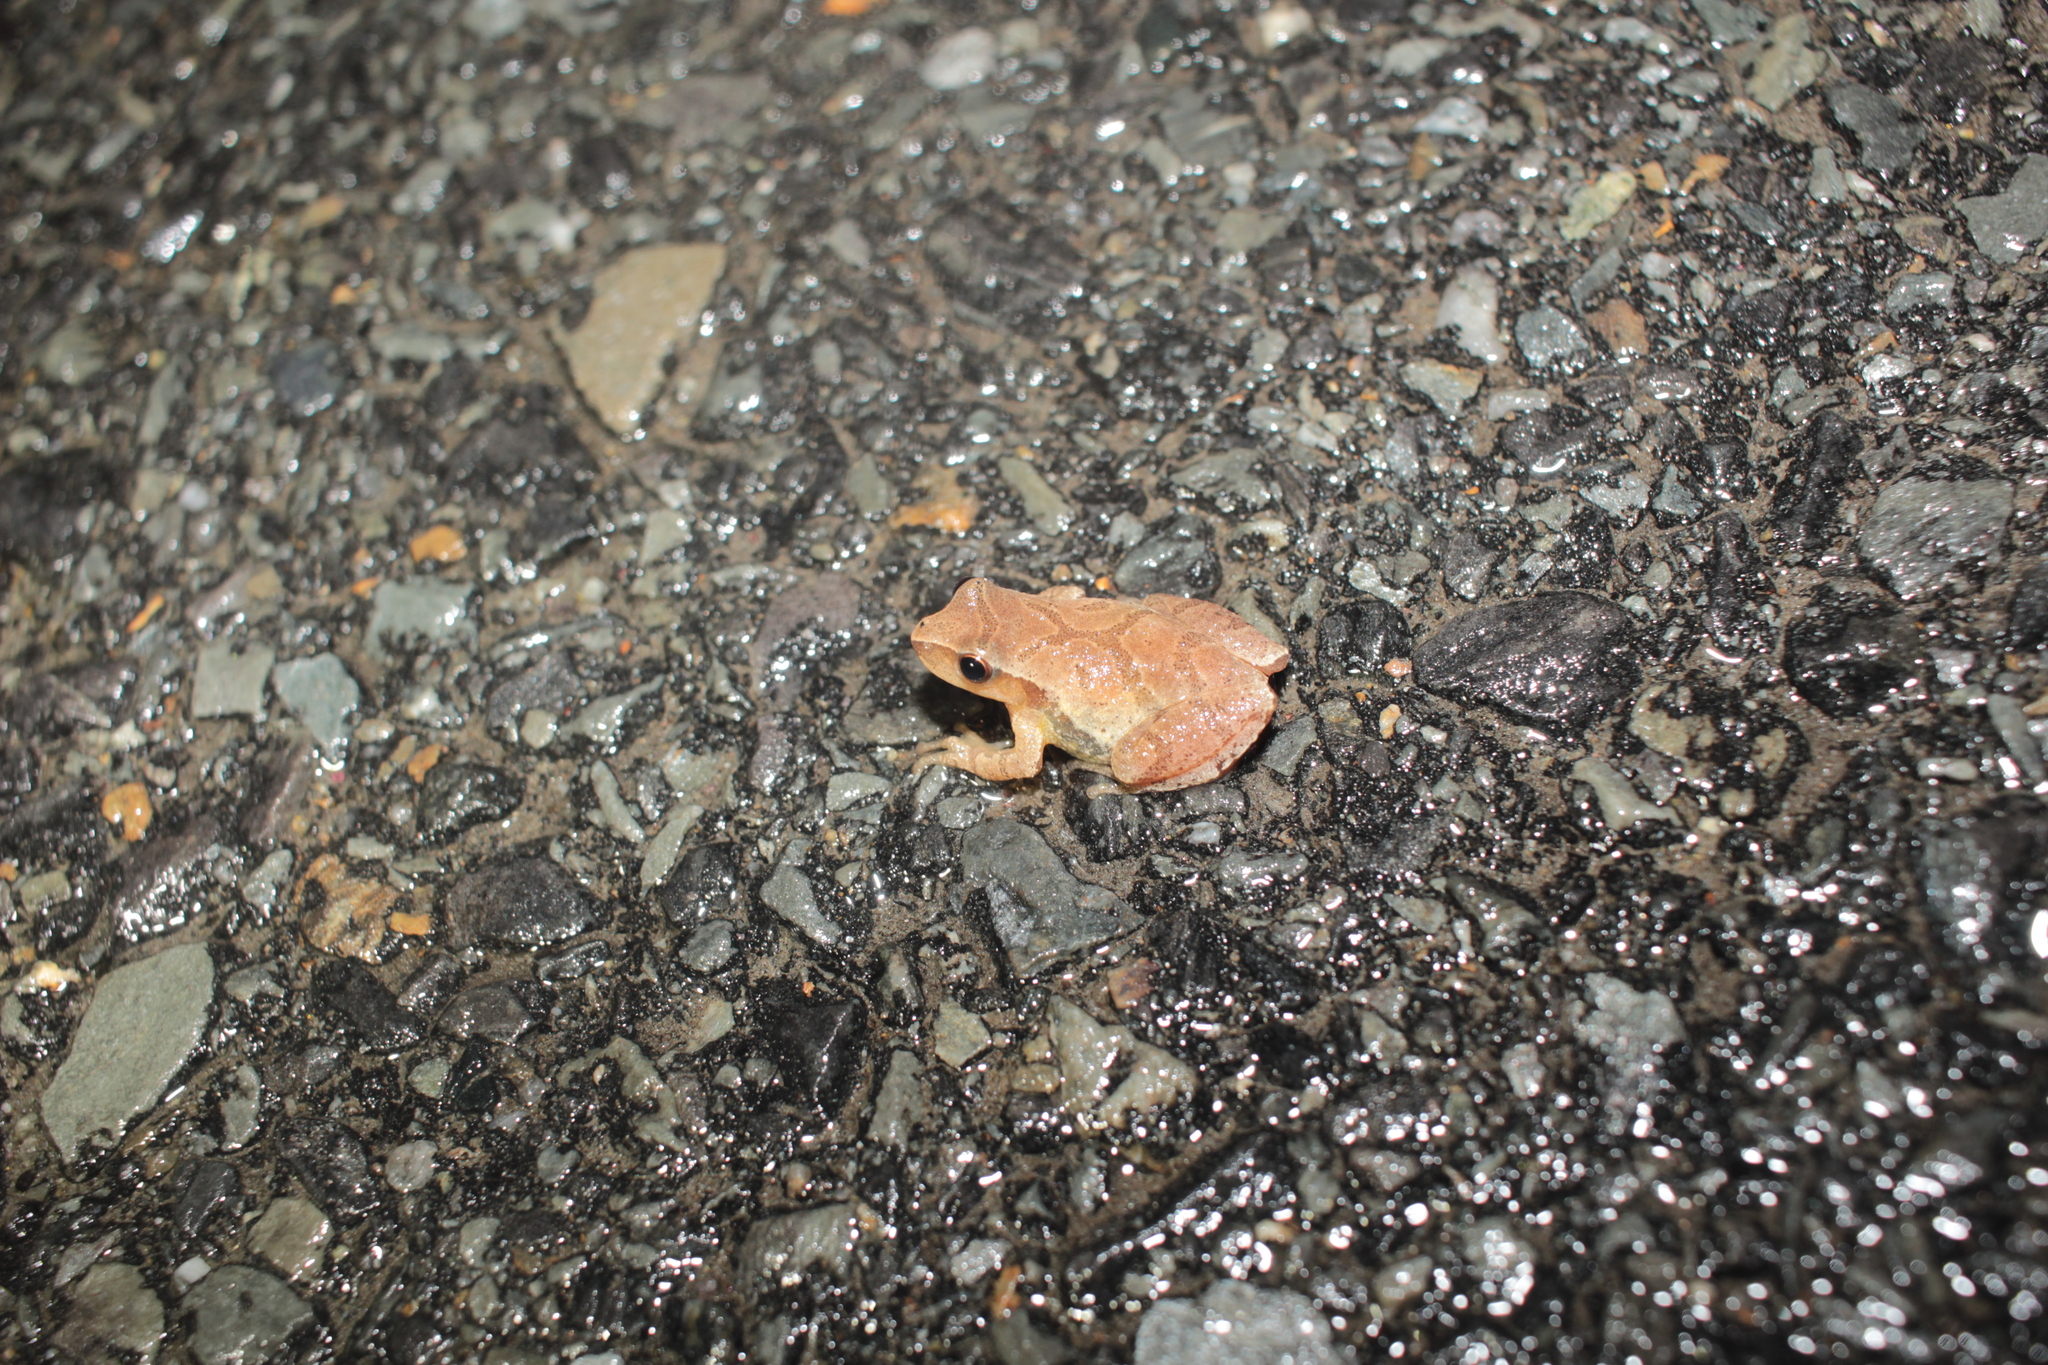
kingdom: Animalia
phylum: Chordata
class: Amphibia
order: Anura
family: Hylidae
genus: Pseudacris
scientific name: Pseudacris crucifer
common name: Spring peeper
